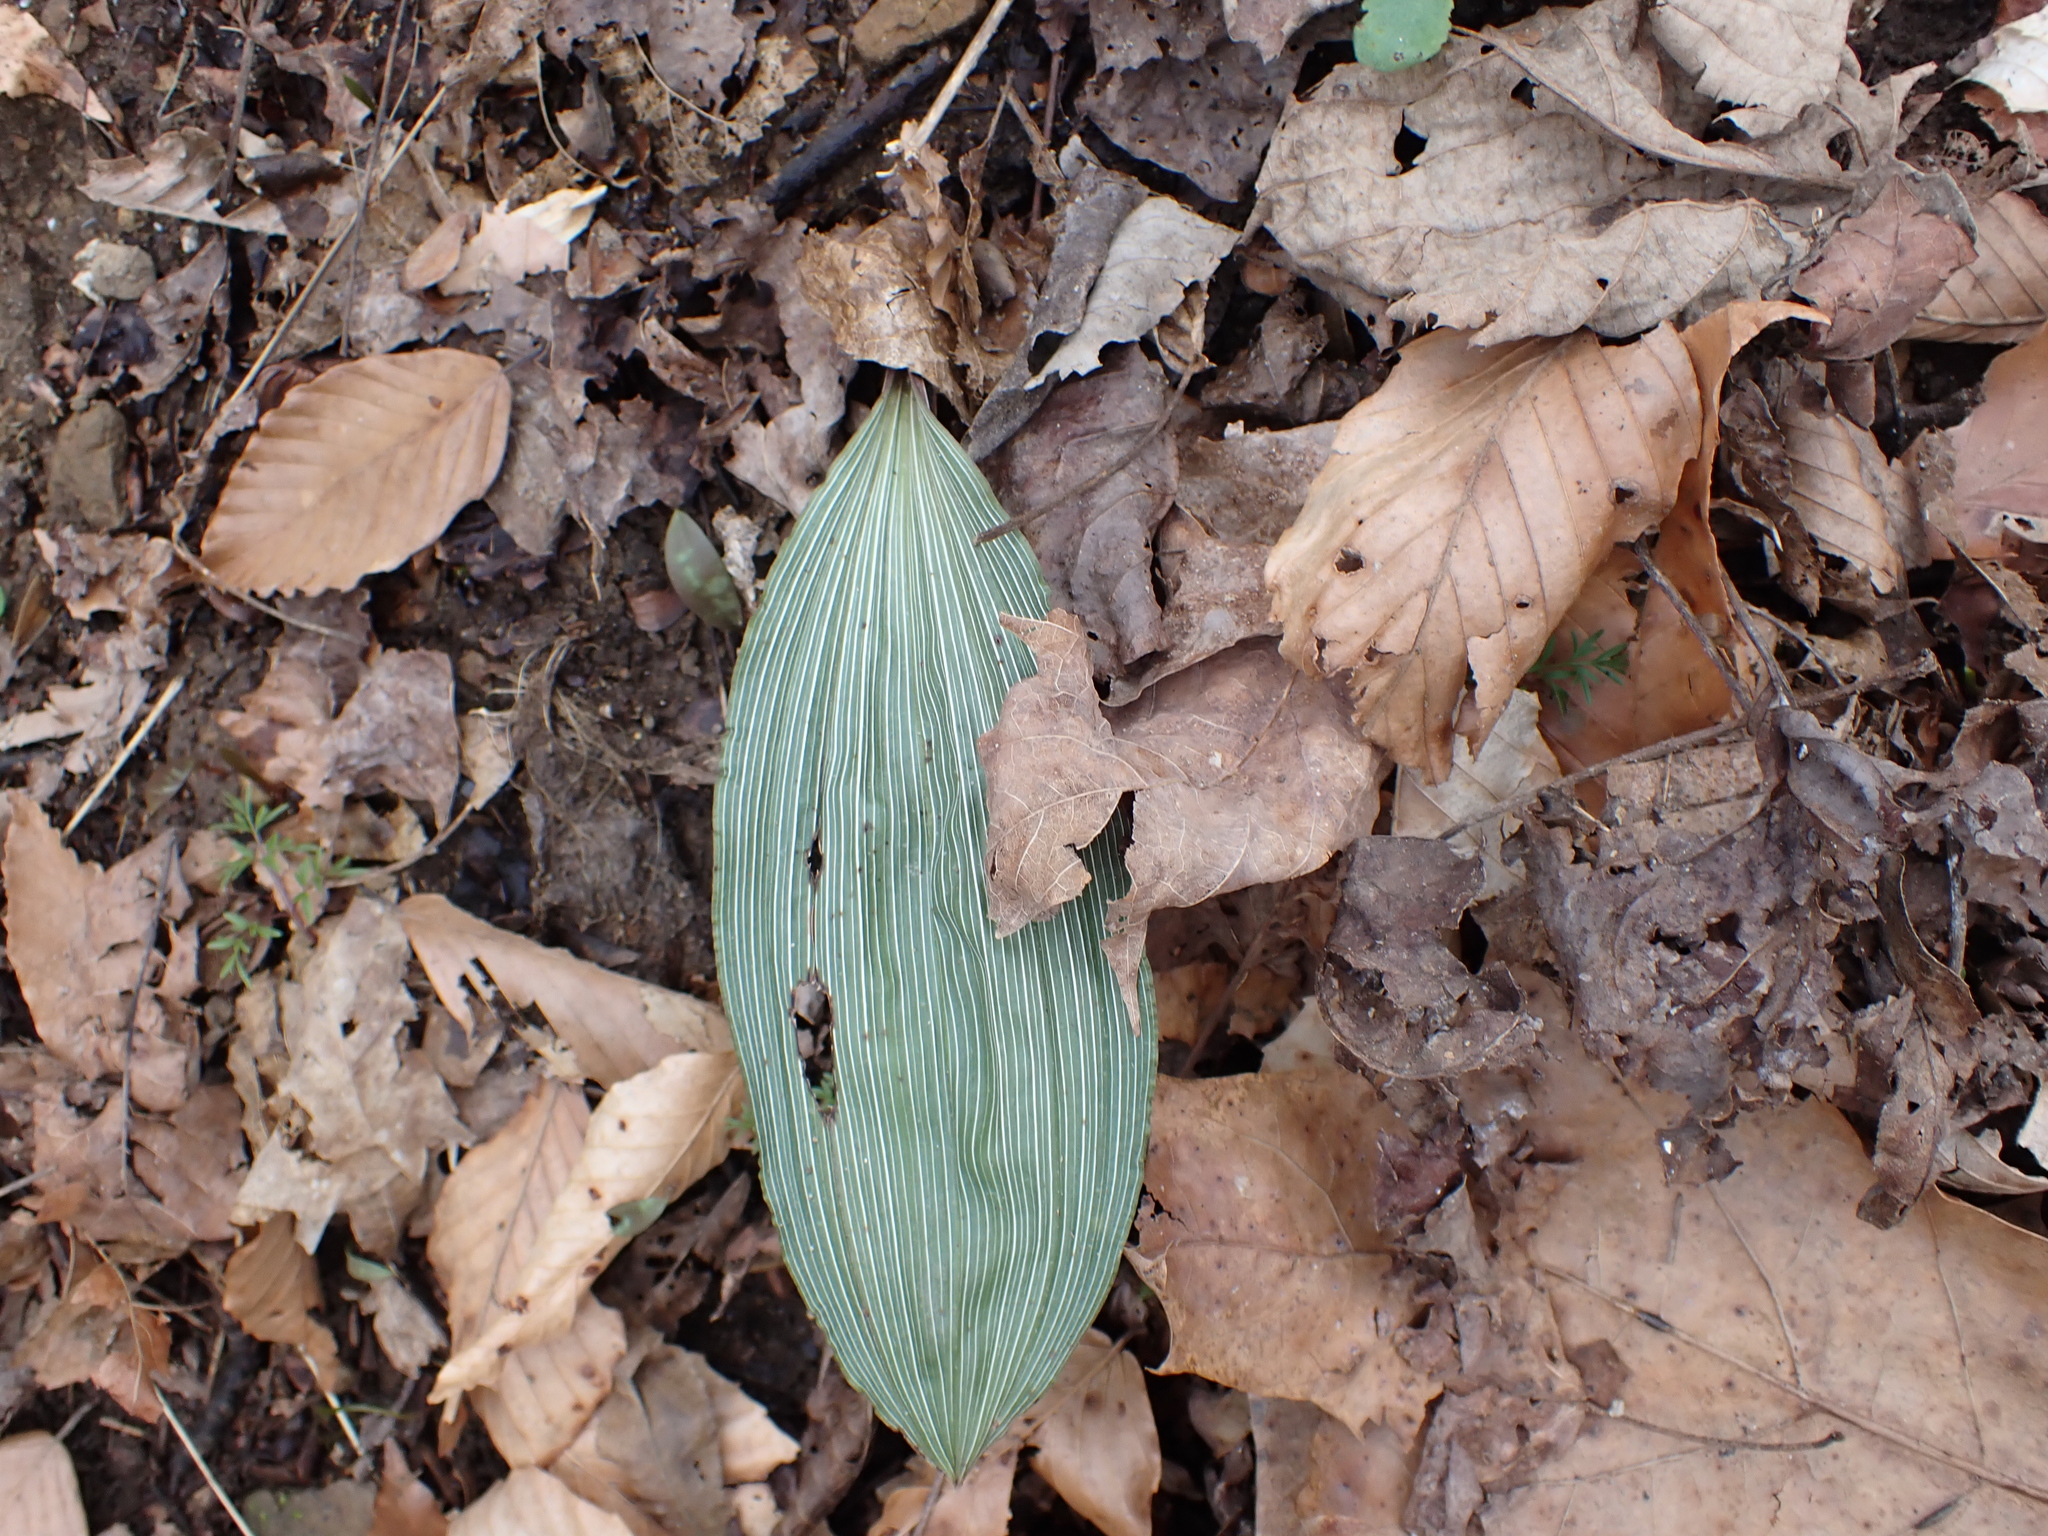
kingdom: Plantae
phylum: Tracheophyta
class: Liliopsida
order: Asparagales
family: Orchidaceae
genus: Aplectrum
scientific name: Aplectrum hyemale
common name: Adam-and-eve
